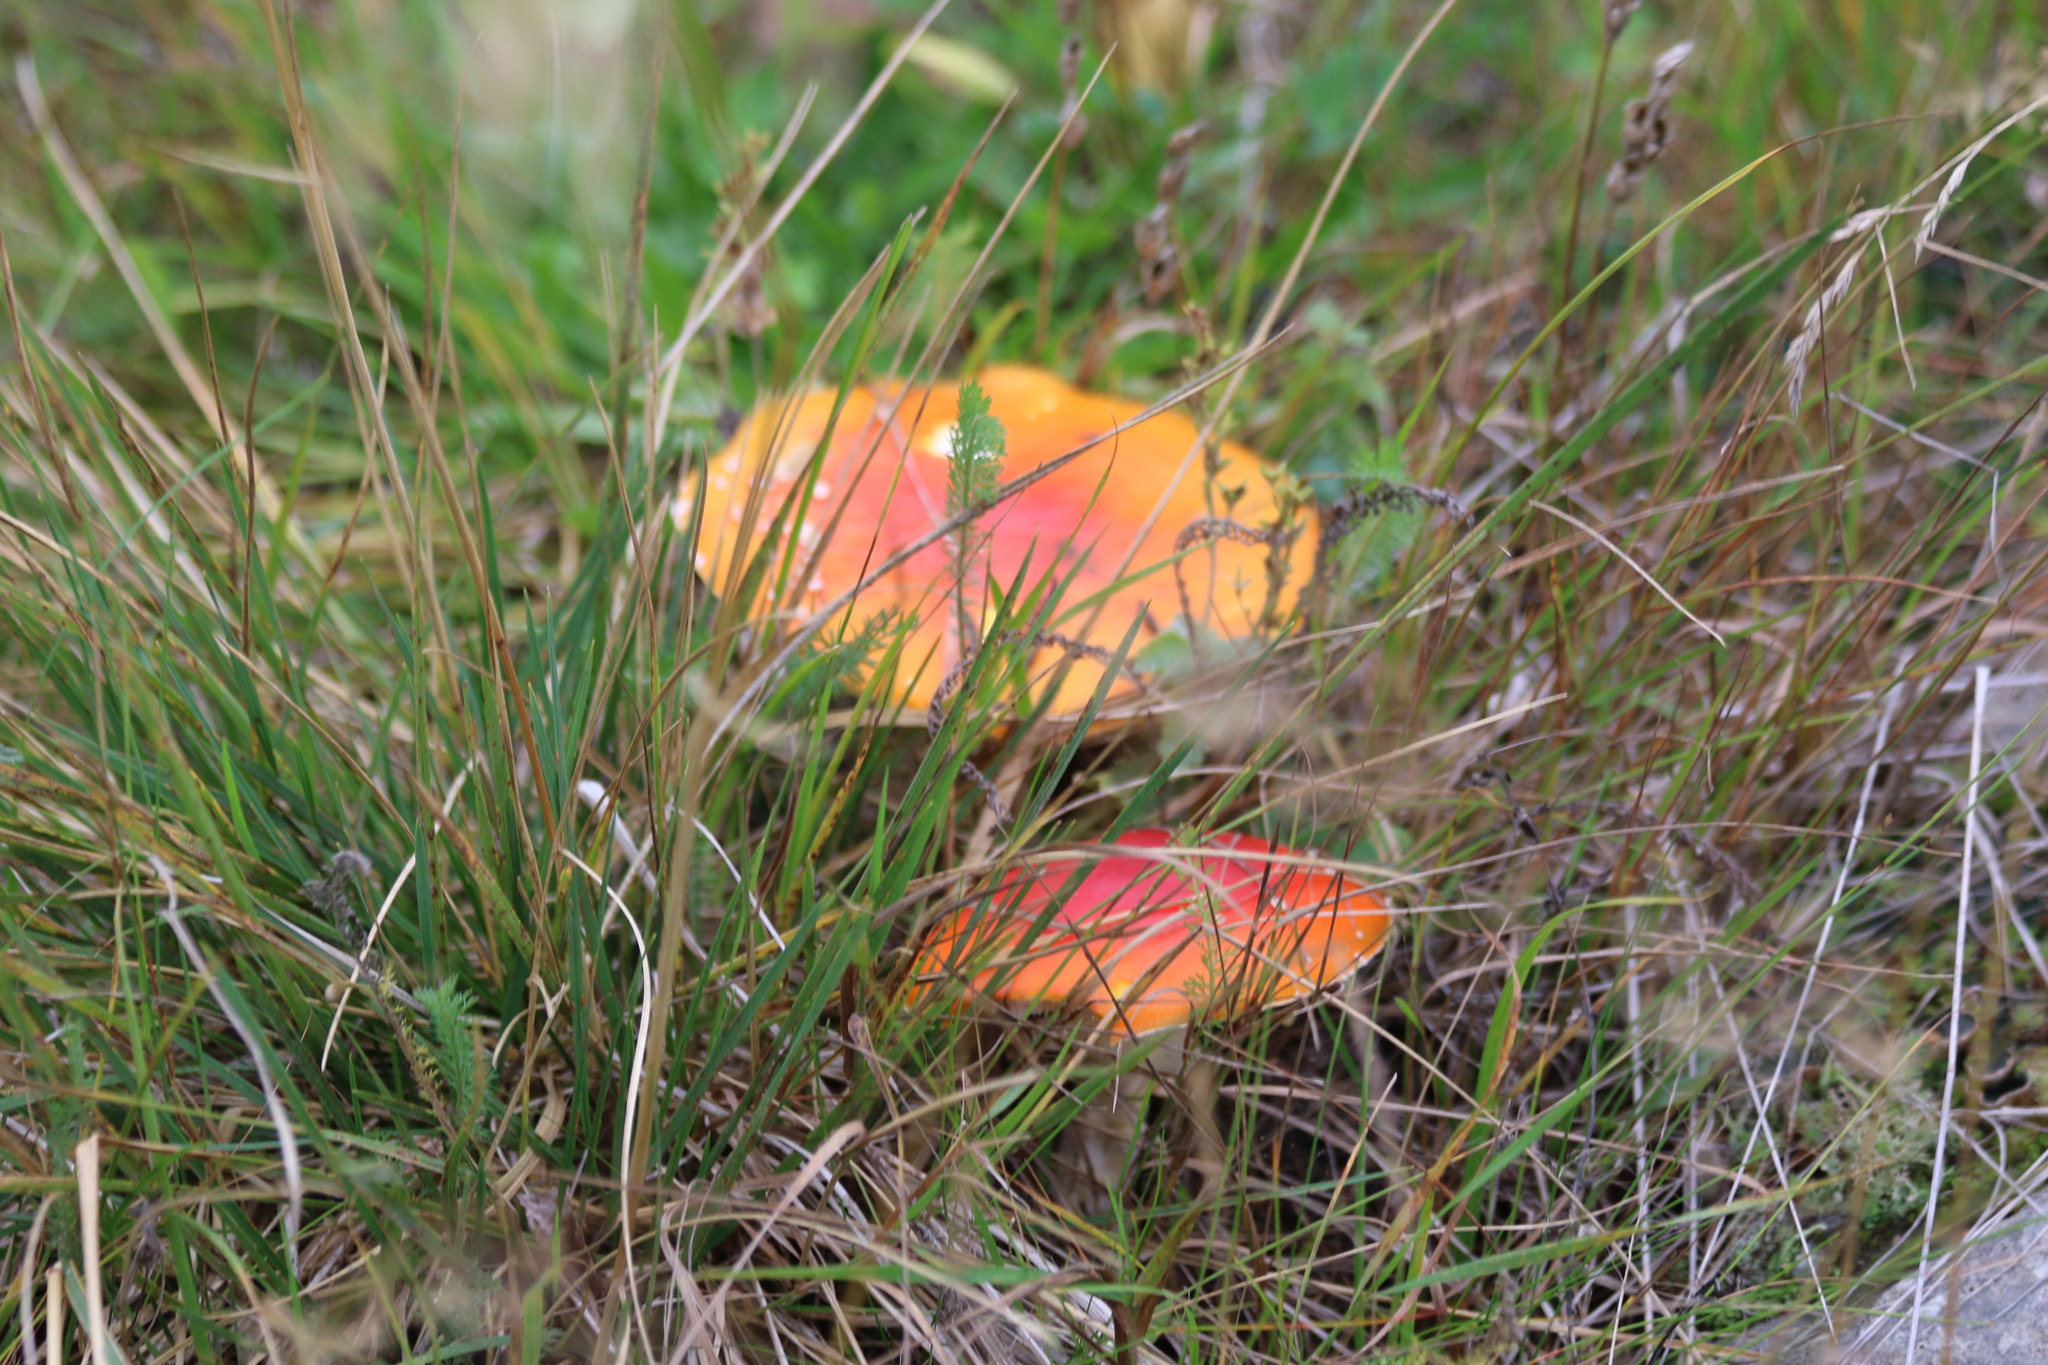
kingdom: Fungi
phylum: Basidiomycota
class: Agaricomycetes
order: Agaricales
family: Amanitaceae
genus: Amanita
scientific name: Amanita muscaria
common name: Fly agaric
